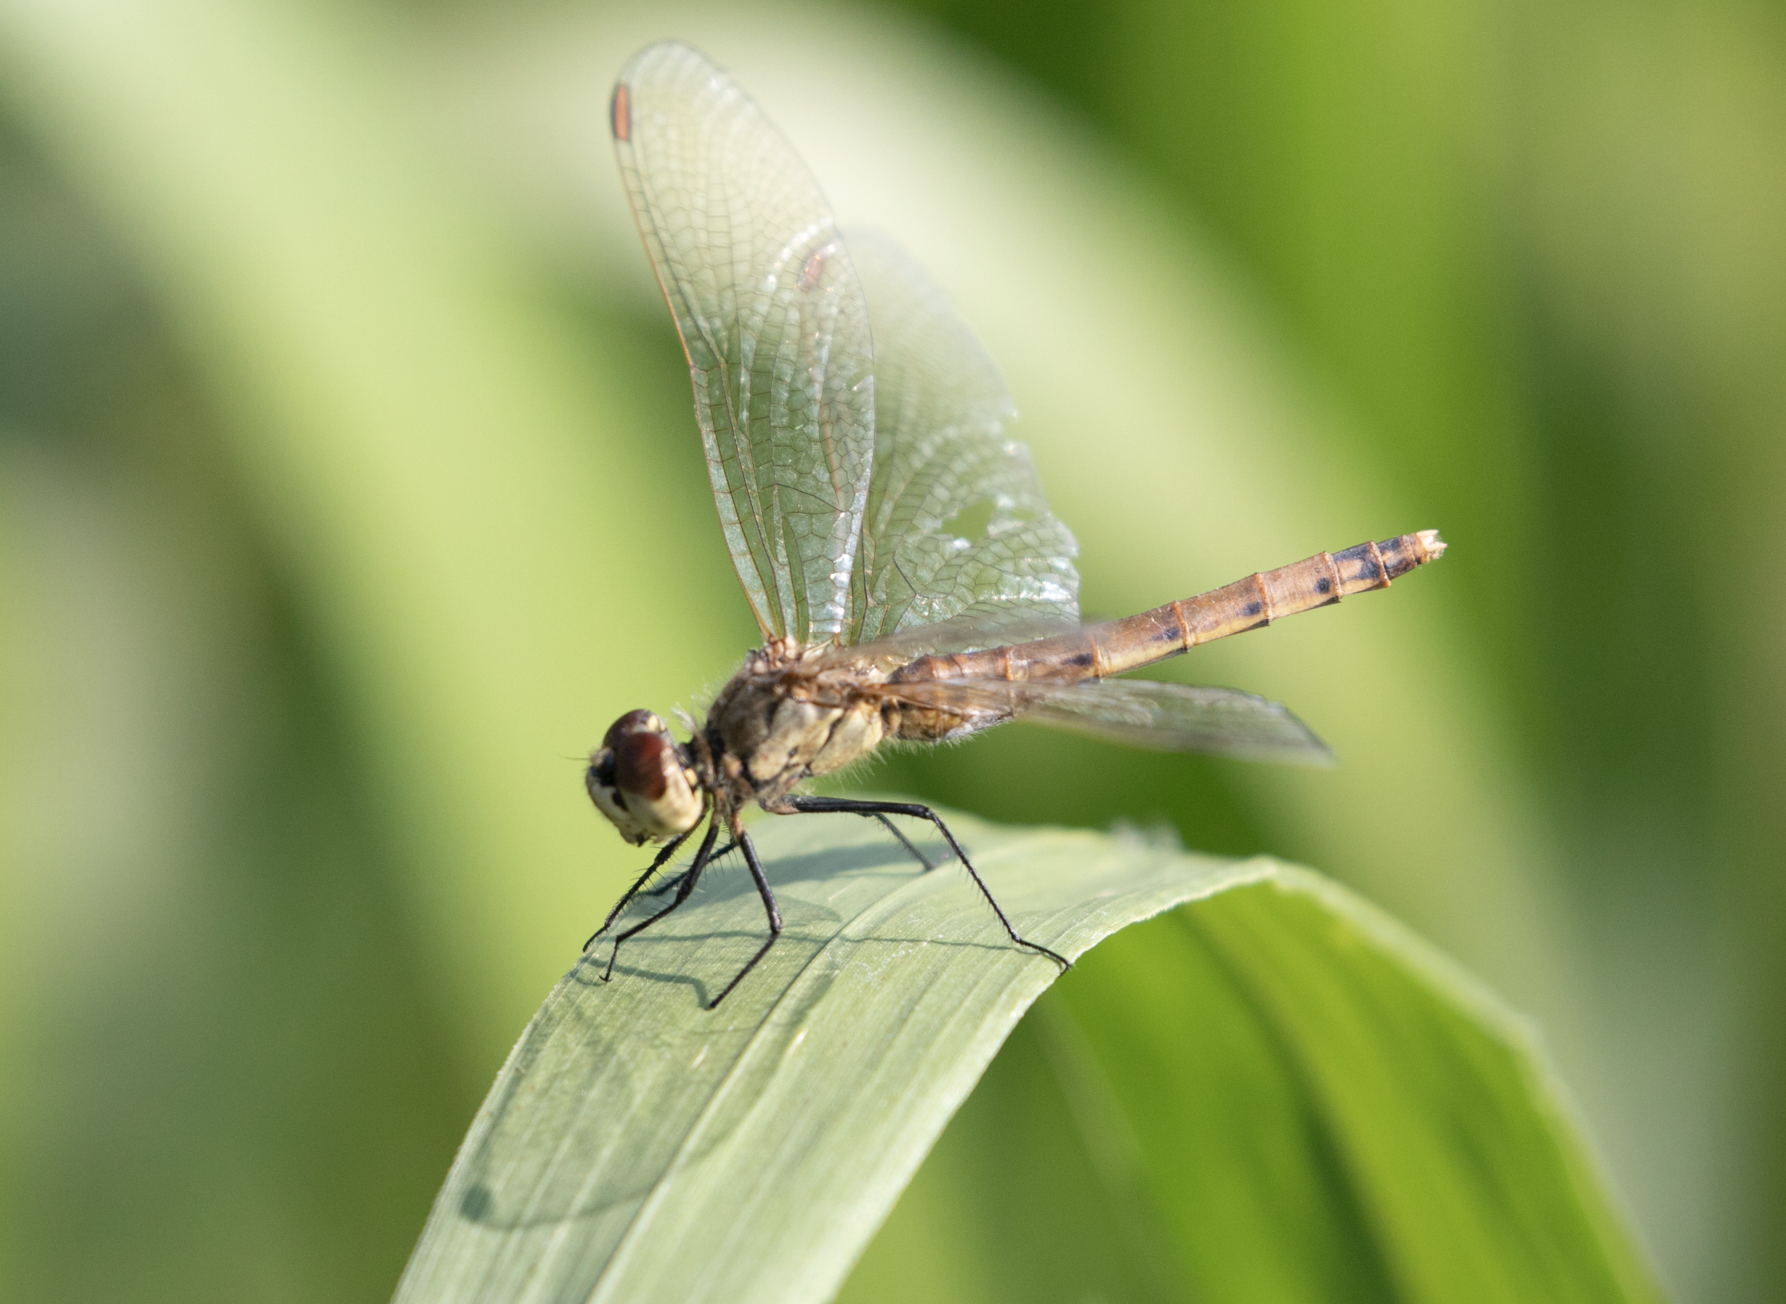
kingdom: Animalia
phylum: Arthropoda
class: Insecta
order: Odonata
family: Libellulidae
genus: Sympetrum
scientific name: Sympetrum depressiusculum
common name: Spotted darter
